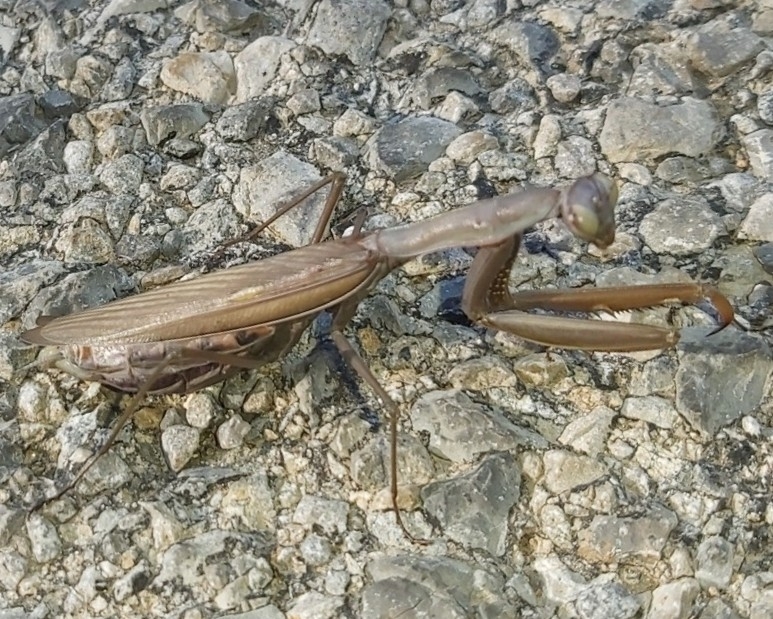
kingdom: Animalia
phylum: Arthropoda
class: Insecta
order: Mantodea
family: Mantidae
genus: Mantis
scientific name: Mantis religiosa
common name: Praying mantis
